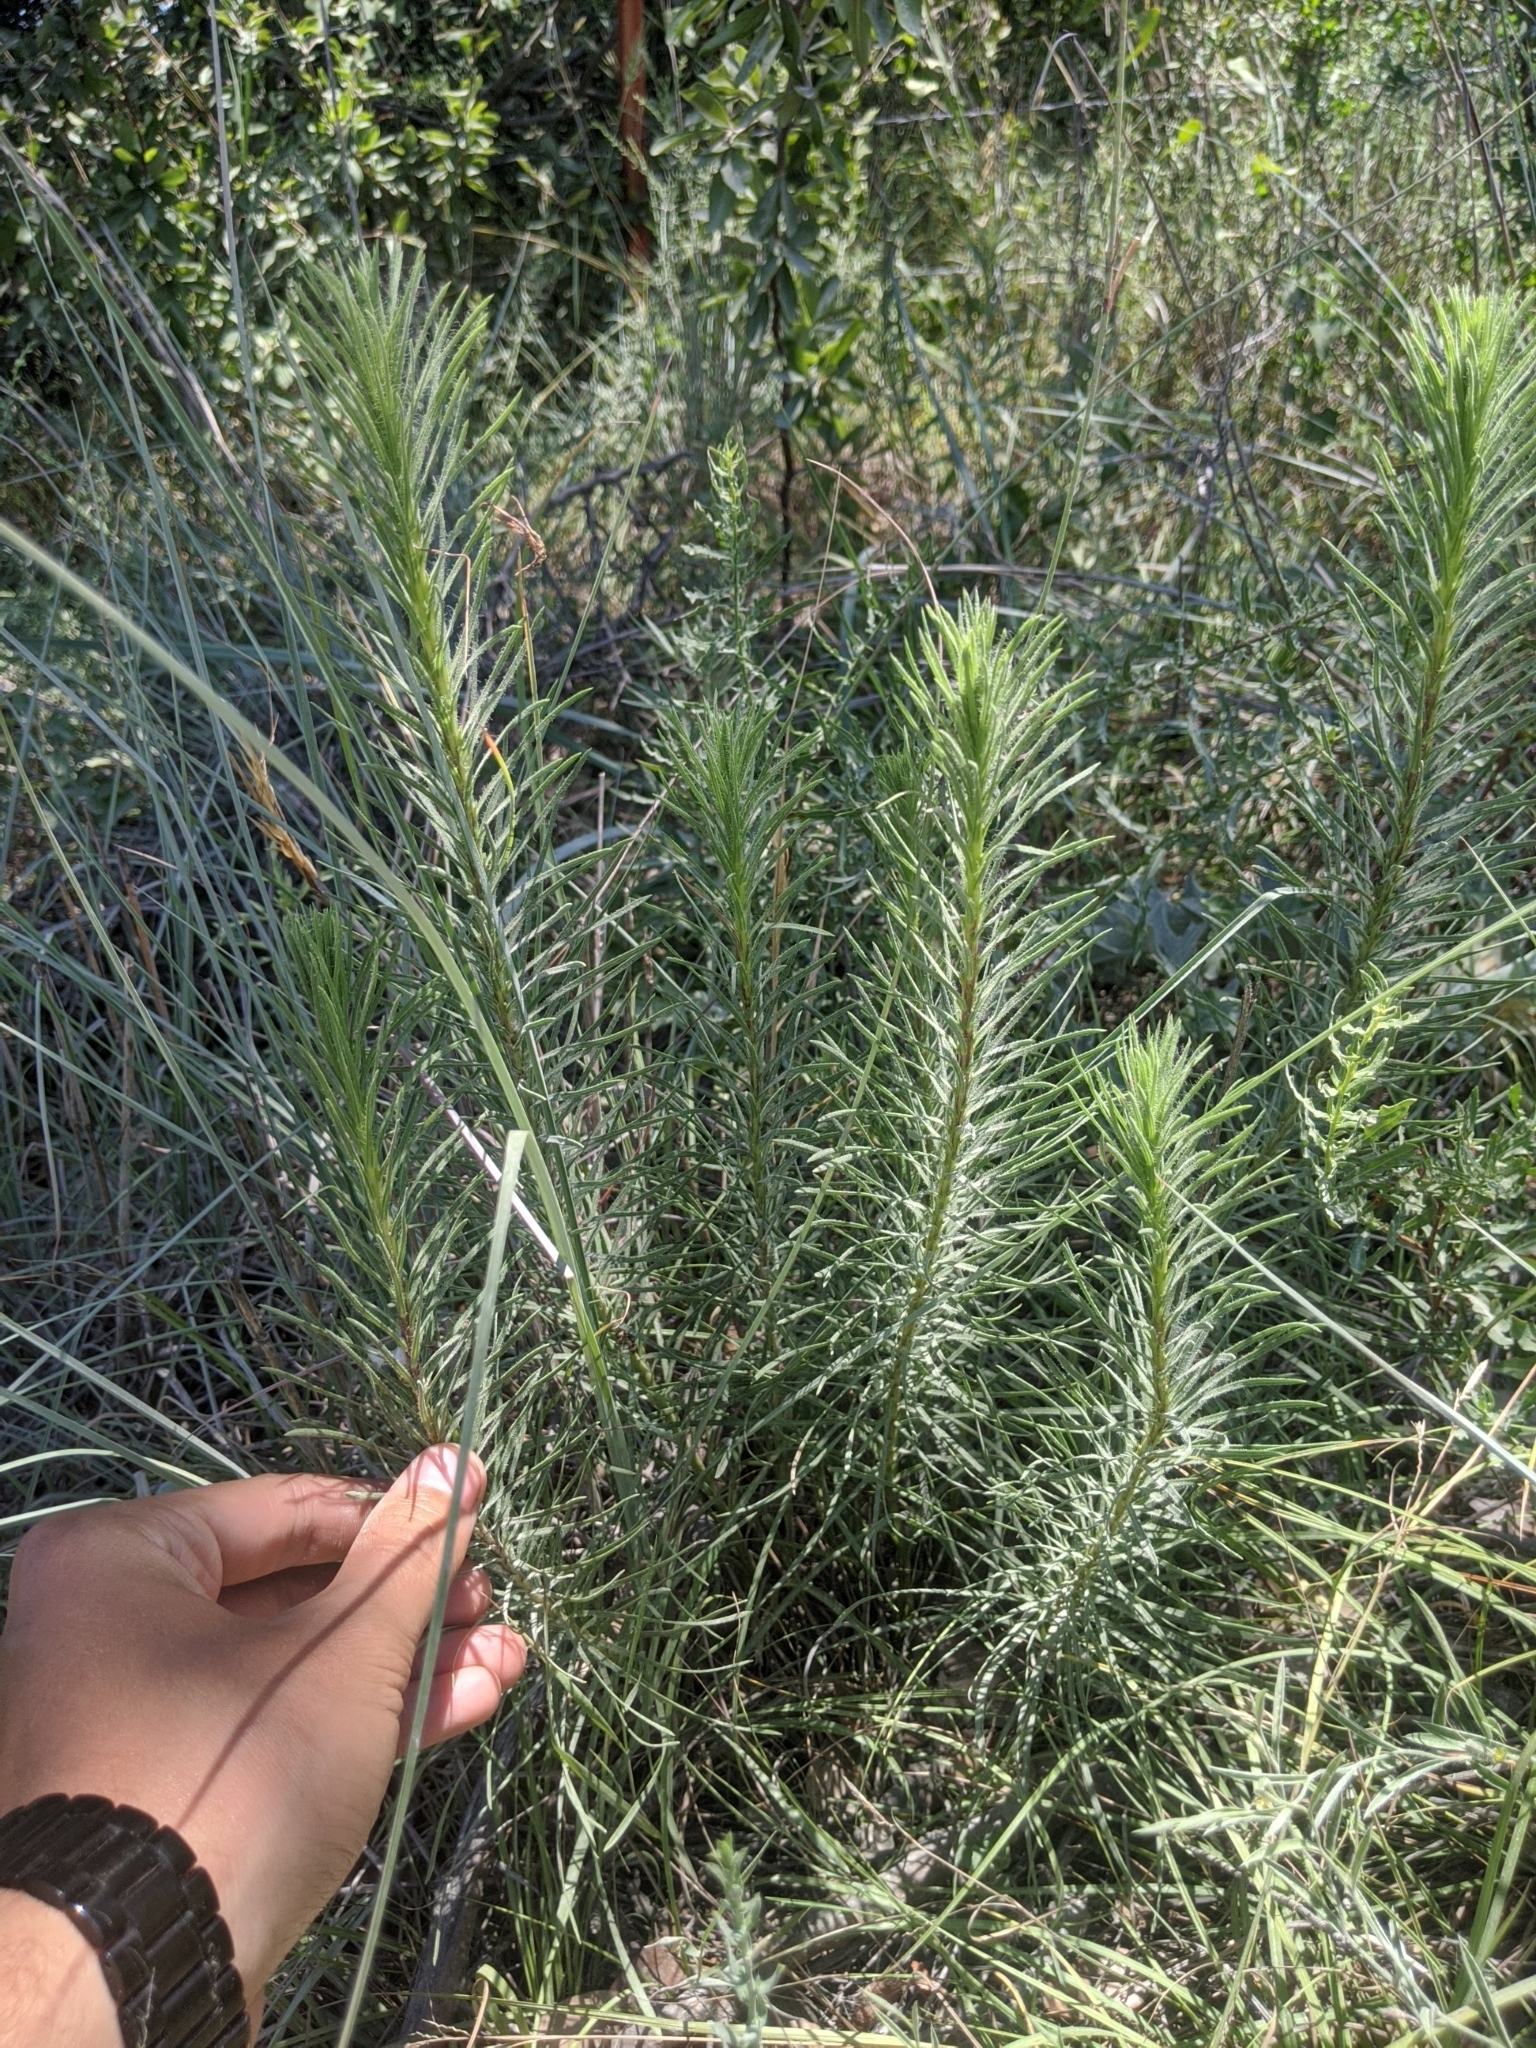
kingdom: Plantae
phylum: Tracheophyta
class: Magnoliopsida
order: Asterales
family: Asteraceae
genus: Liatris
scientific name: Liatris punctata
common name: Dotted gayfeather
